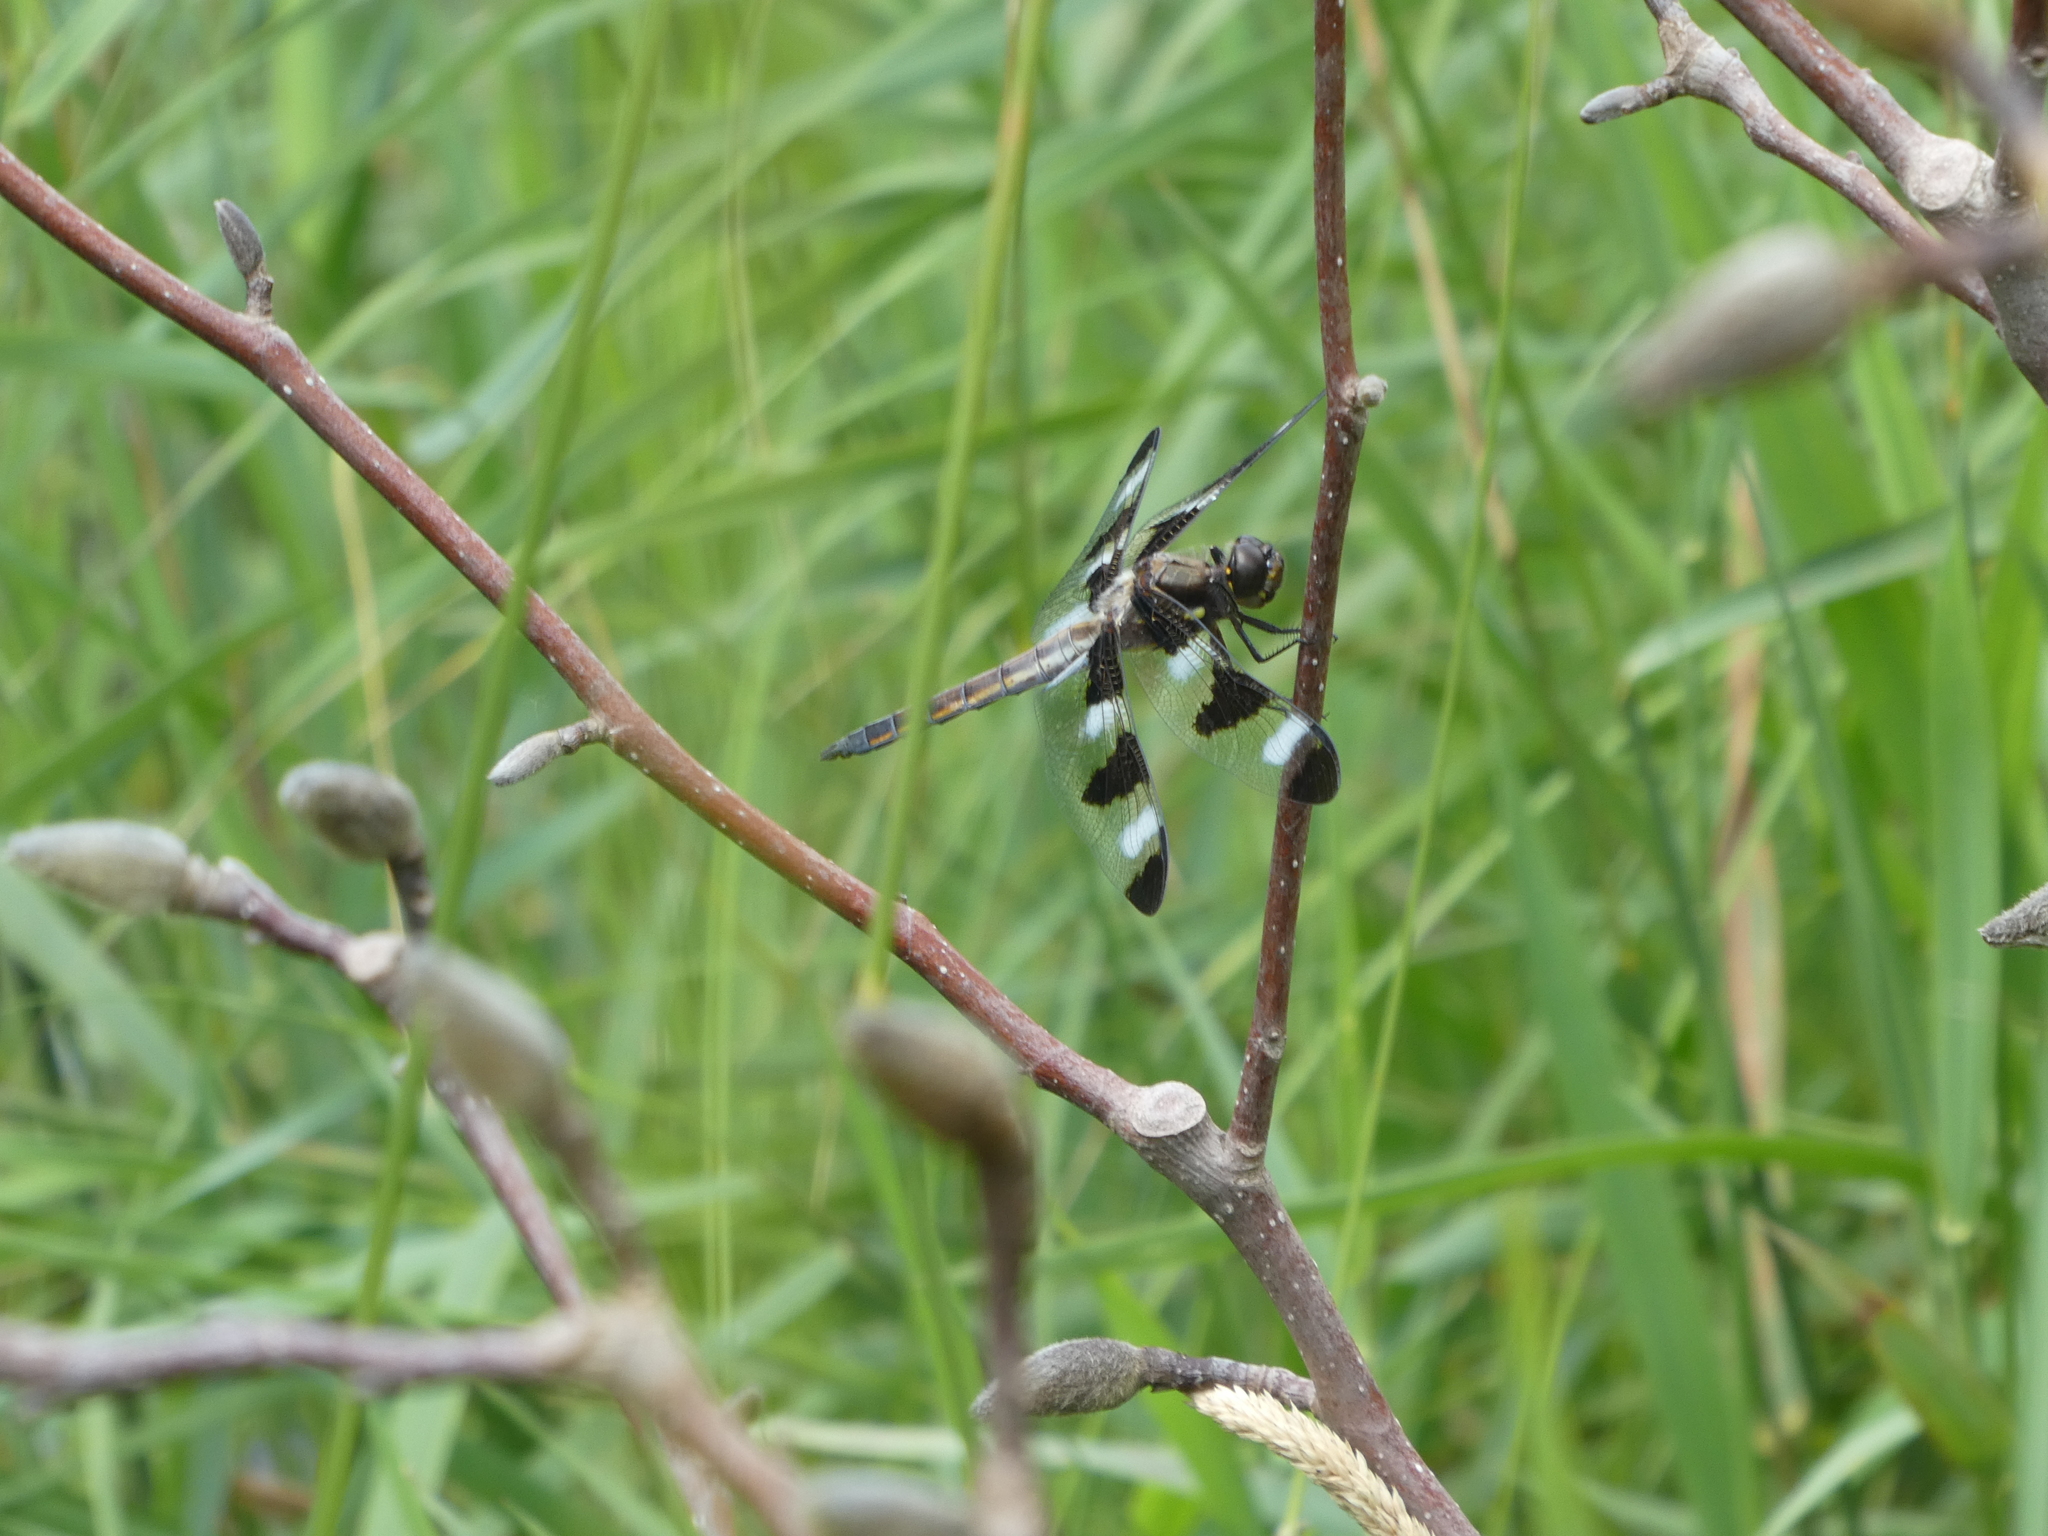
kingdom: Animalia
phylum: Arthropoda
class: Insecta
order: Odonata
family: Libellulidae
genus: Libellula
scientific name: Libellula pulchella
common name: Twelve-spotted skimmer
